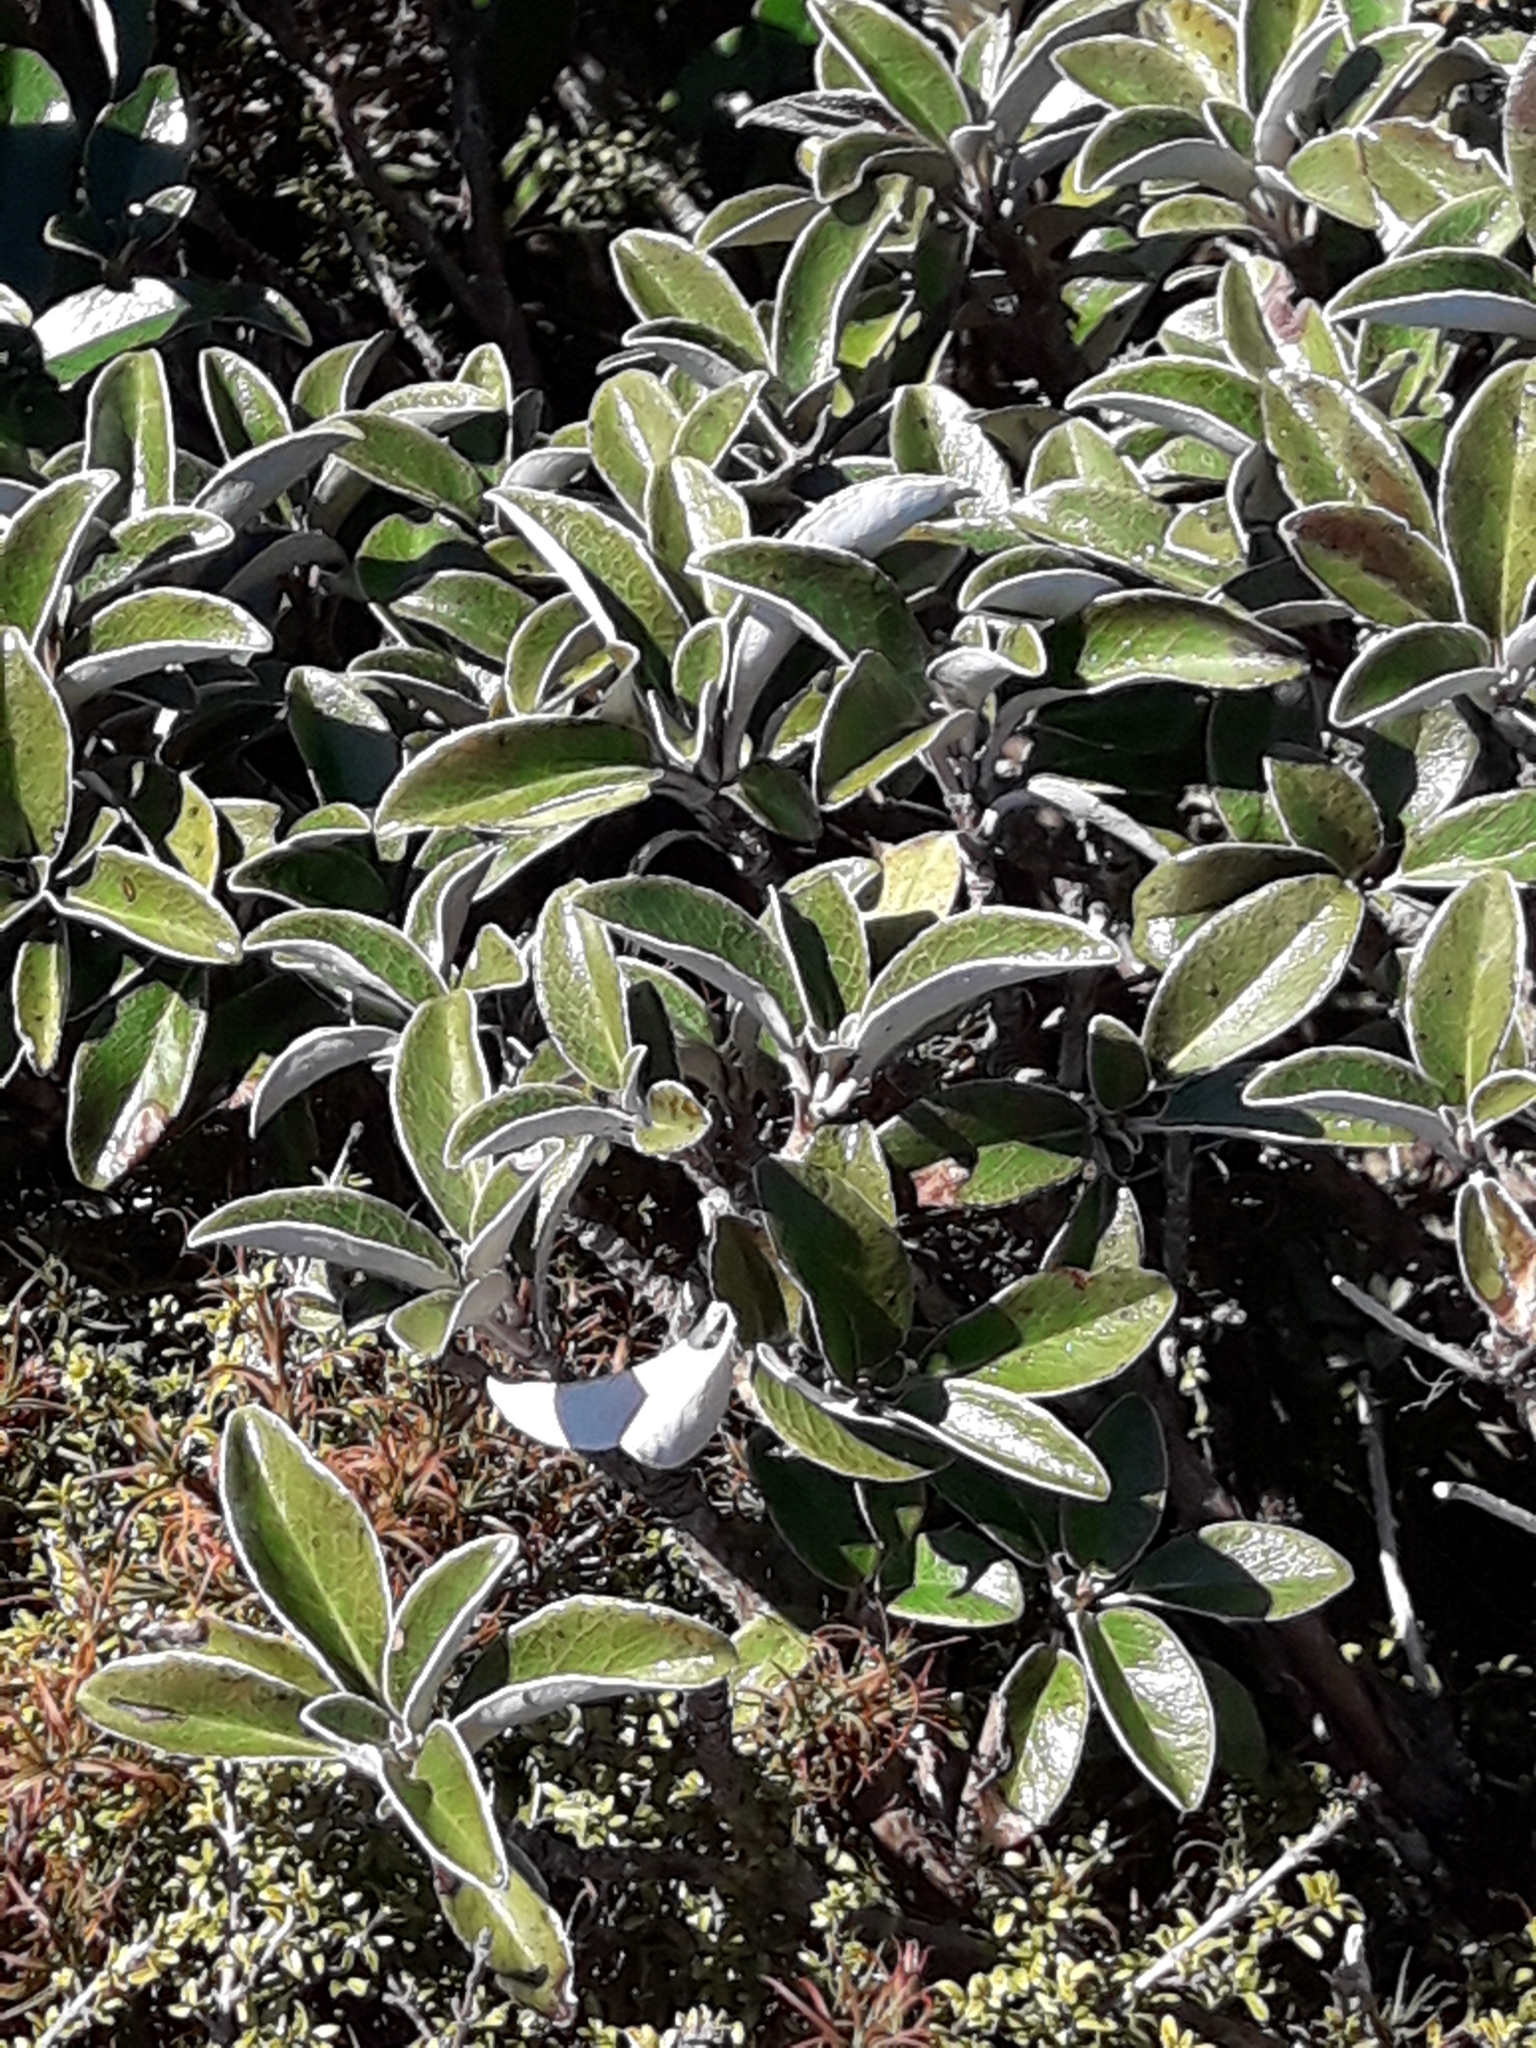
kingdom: Plantae
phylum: Tracheophyta
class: Magnoliopsida
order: Asterales
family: Asteraceae
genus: Brachyglottis
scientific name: Brachyglottis elaeagnifolia
